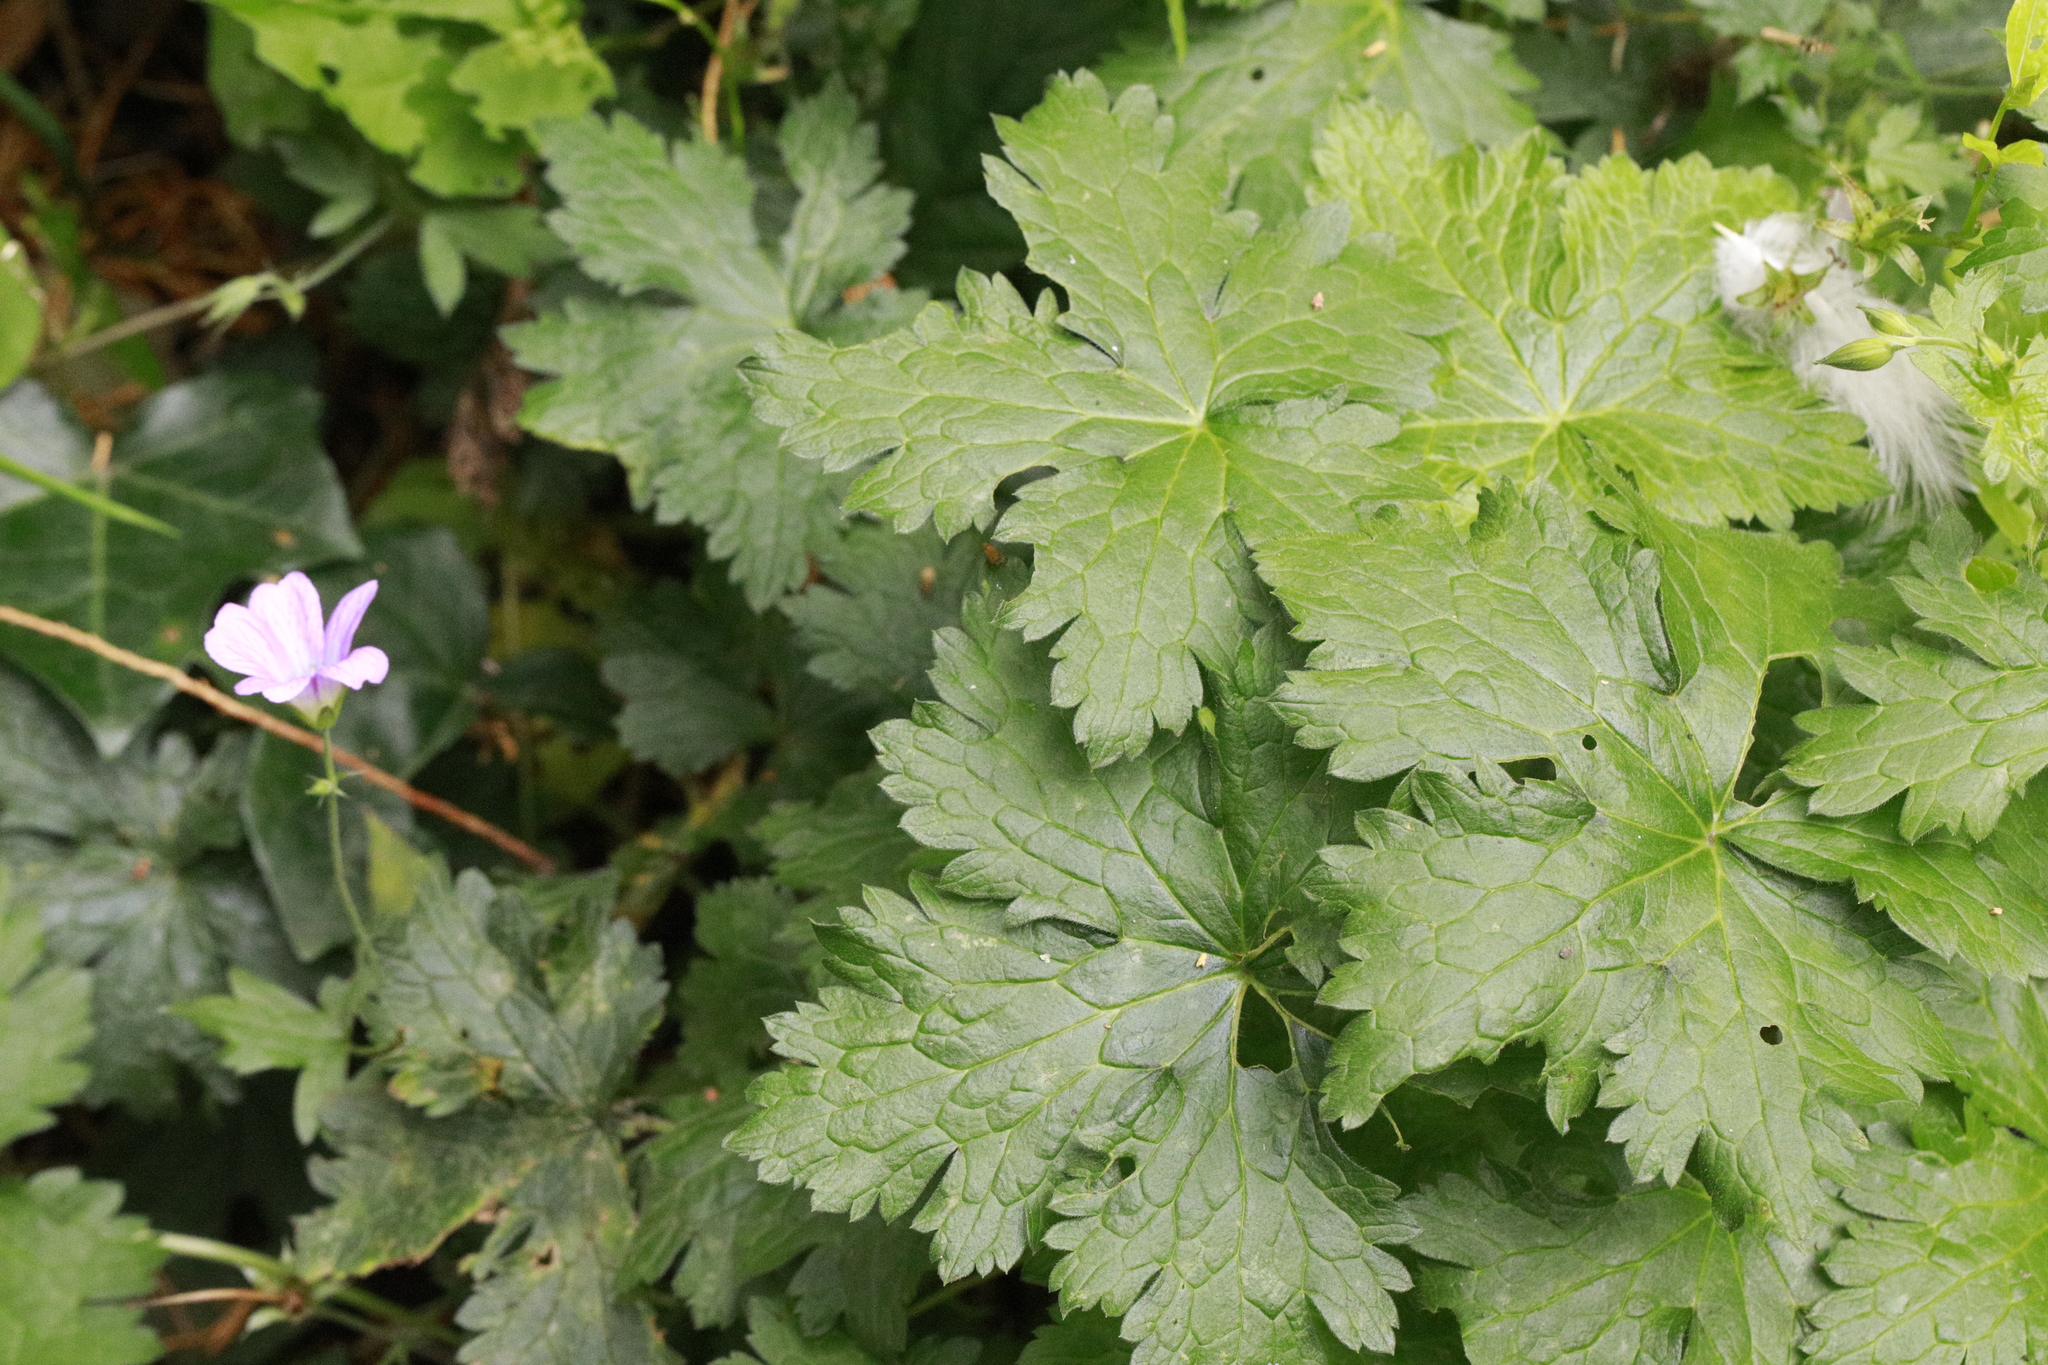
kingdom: Plantae
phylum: Tracheophyta
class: Magnoliopsida
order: Geraniales
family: Geraniaceae
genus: Geranium
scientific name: Geranium oxonianum
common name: Druce's crane's-bill
